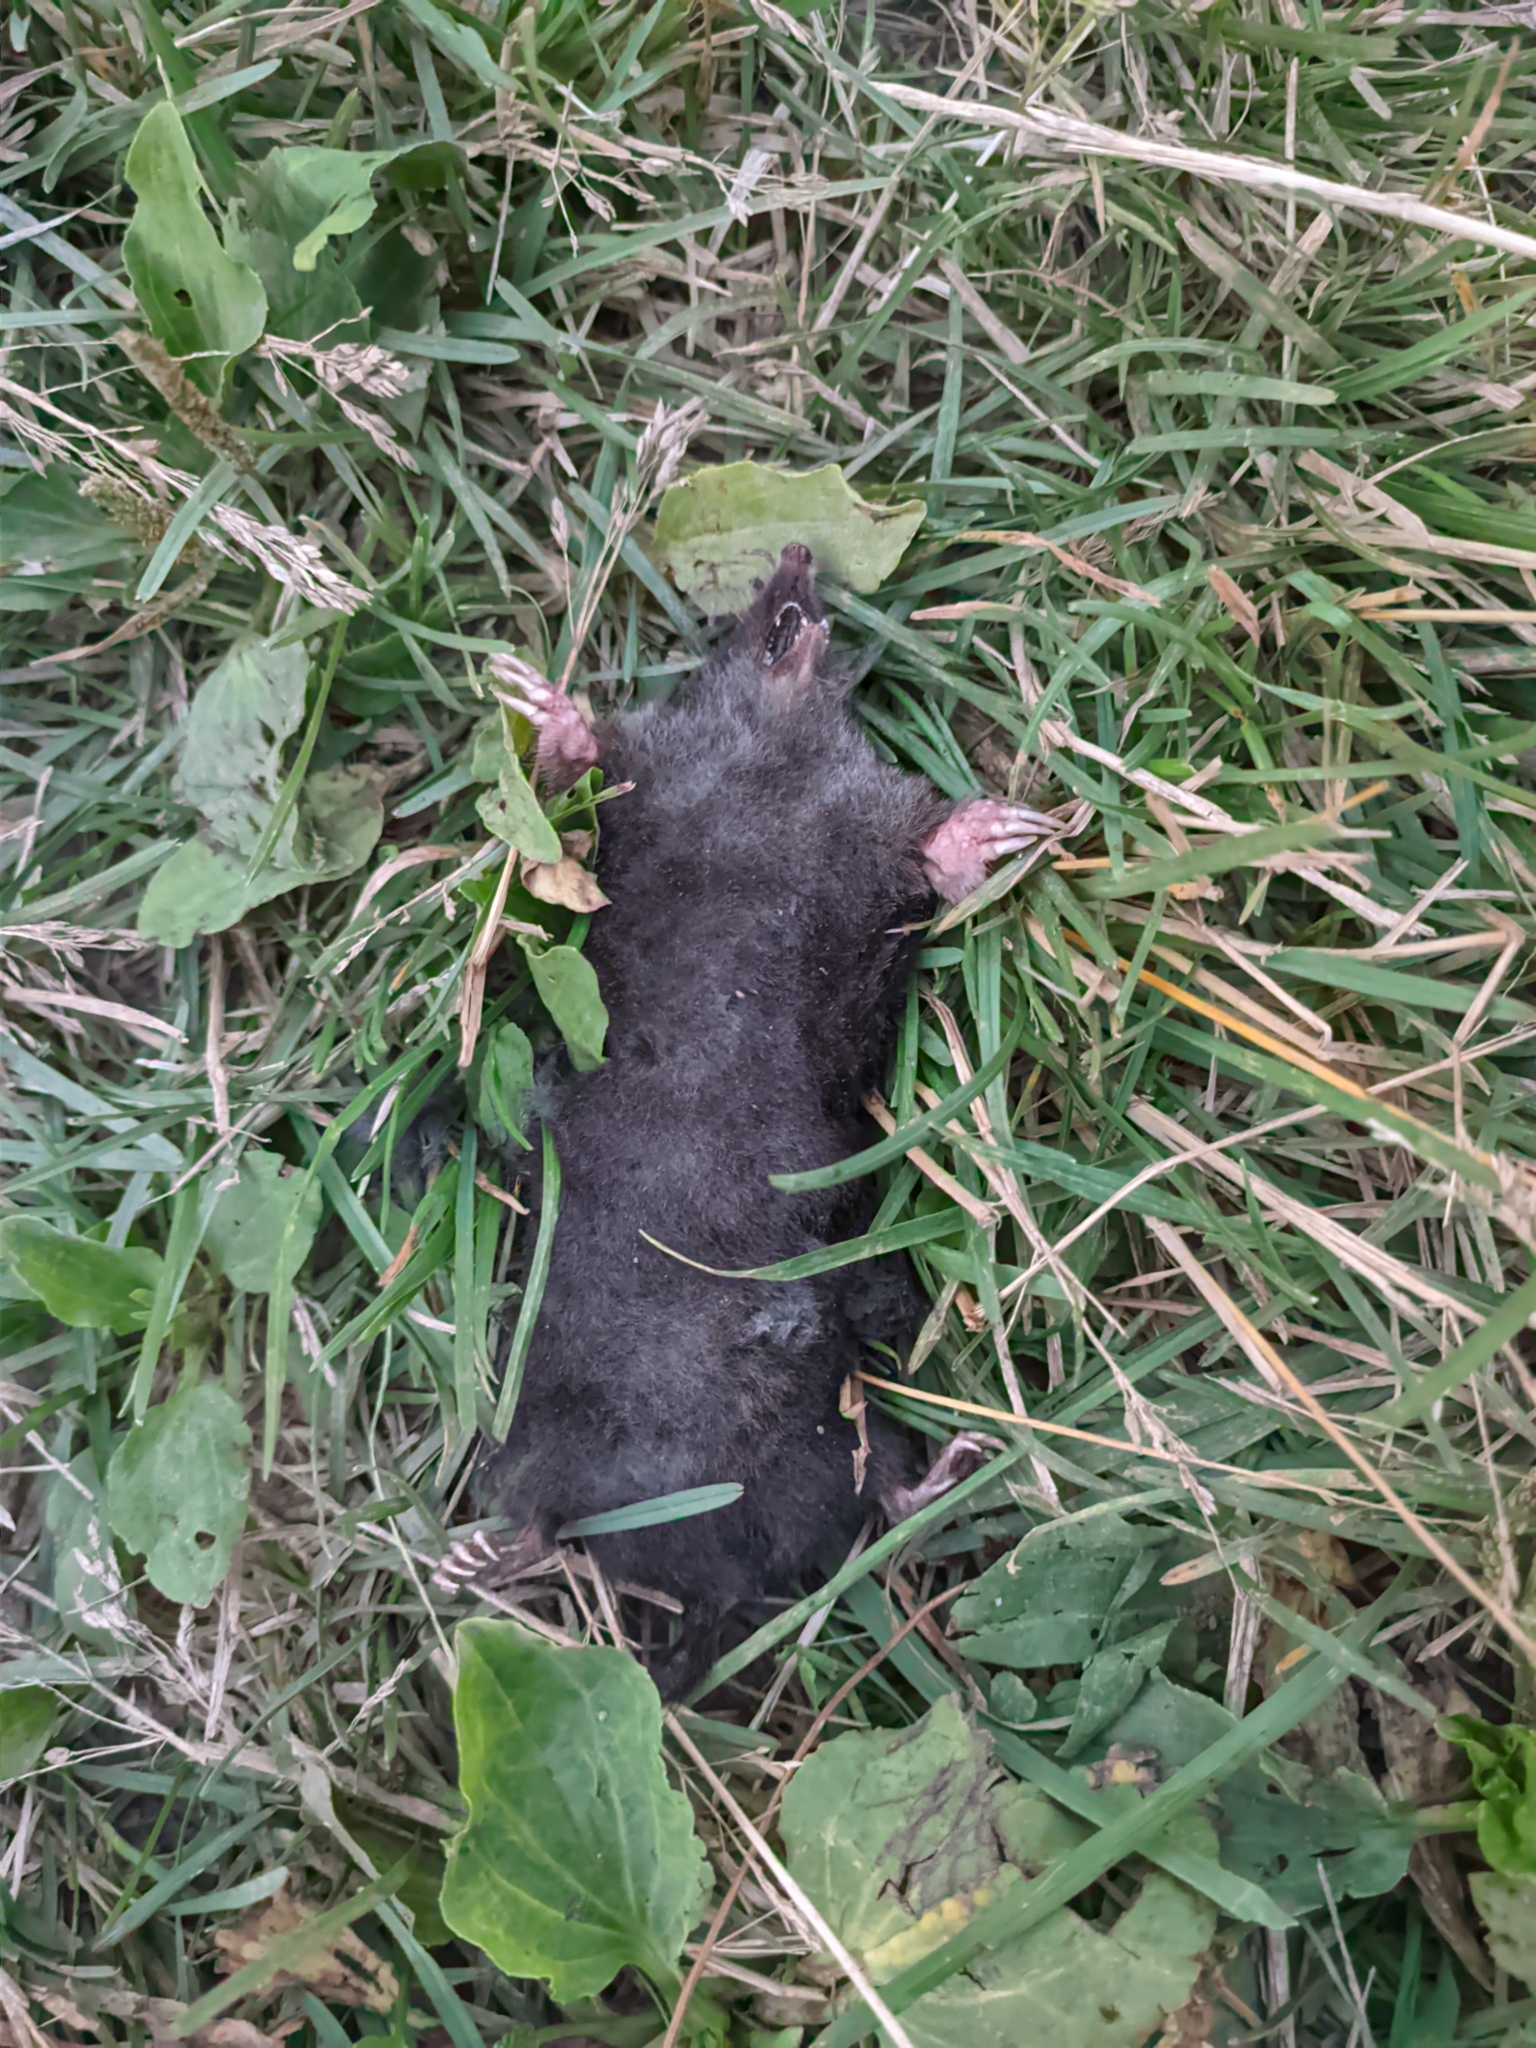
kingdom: Animalia
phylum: Chordata
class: Mammalia
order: Soricomorpha
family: Talpidae
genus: Talpa
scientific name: Talpa europaea
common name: European mole
